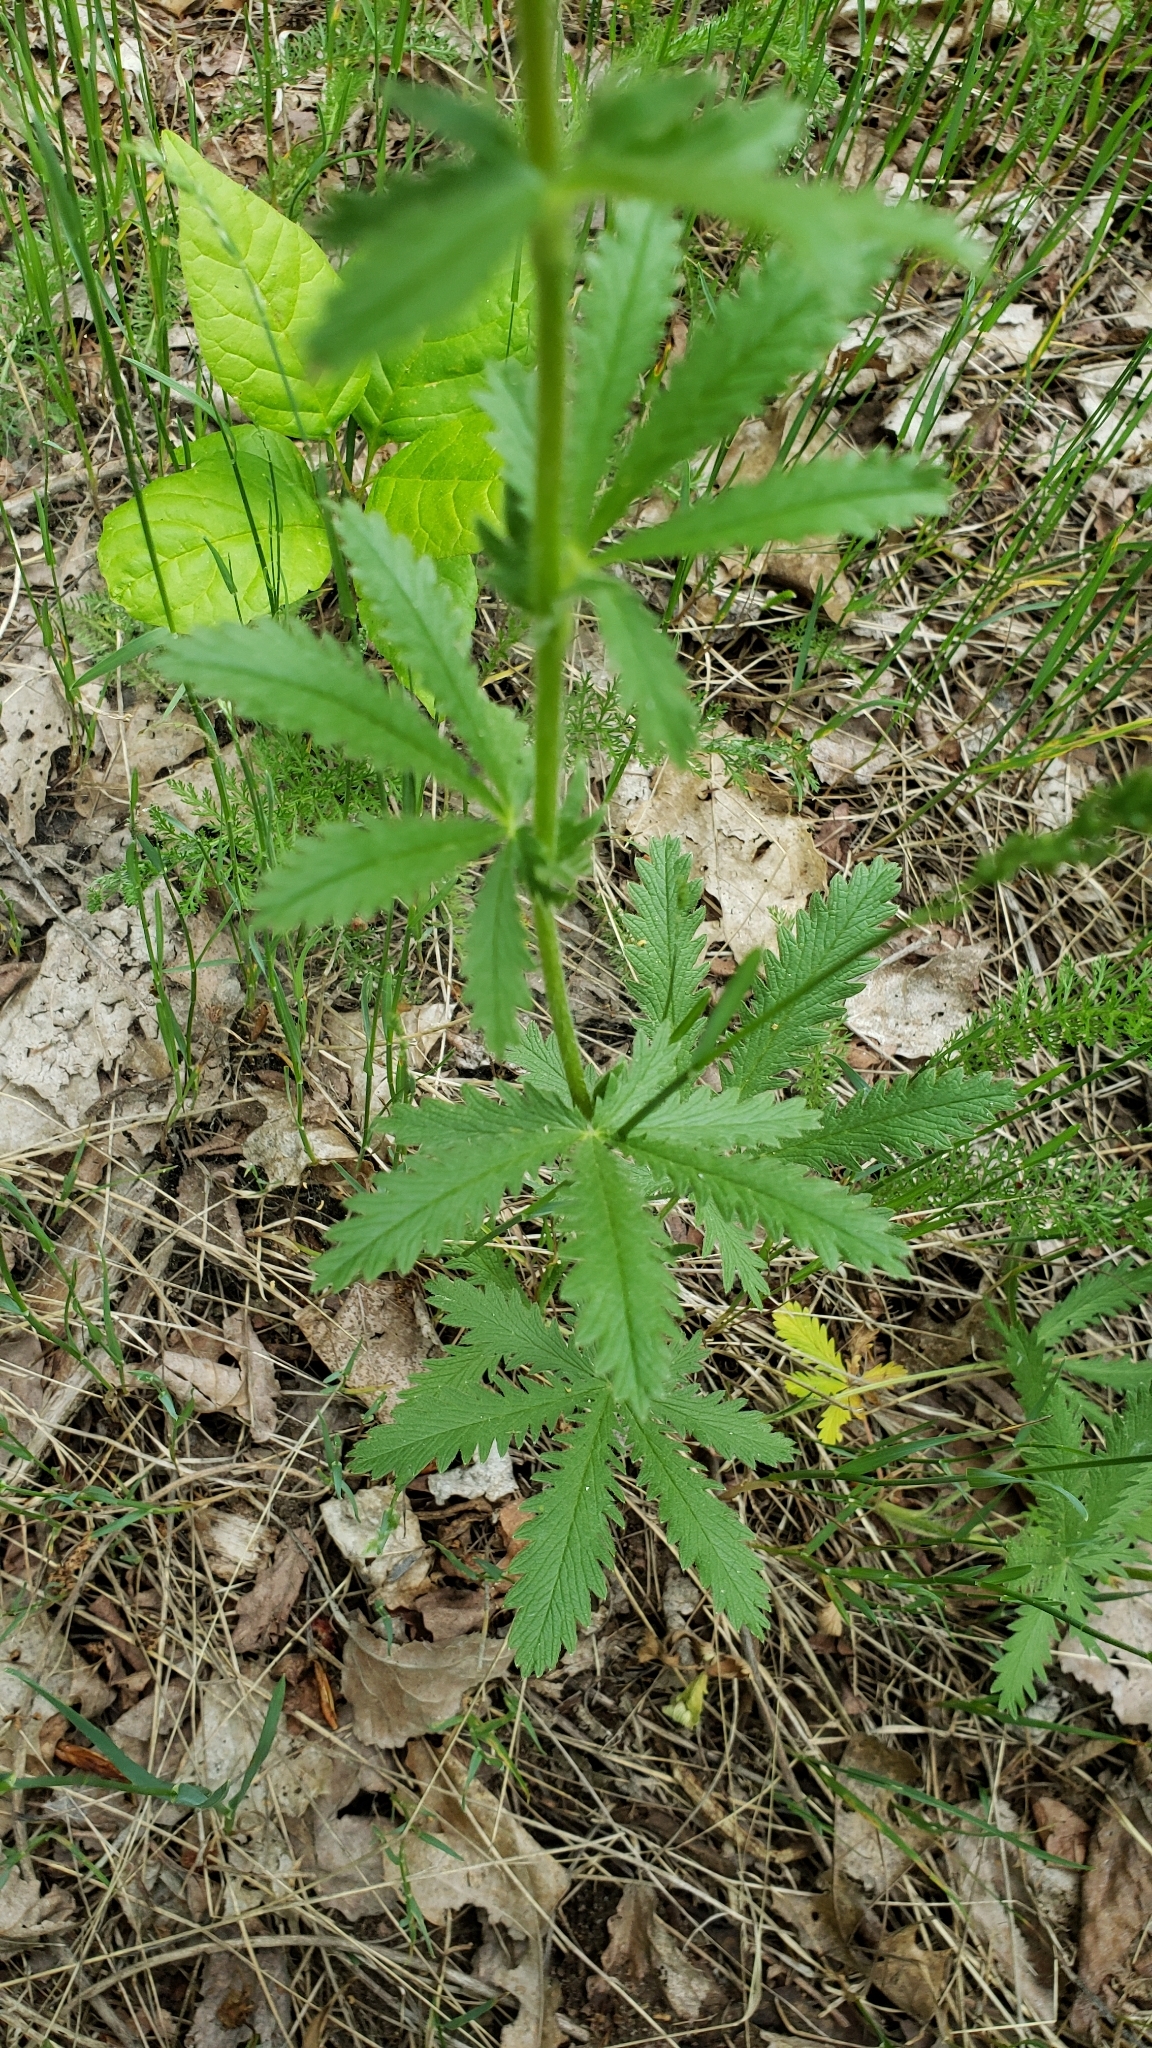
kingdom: Plantae
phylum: Tracheophyta
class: Magnoliopsida
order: Rosales
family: Rosaceae
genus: Potentilla
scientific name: Potentilla recta
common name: Sulphur cinquefoil
